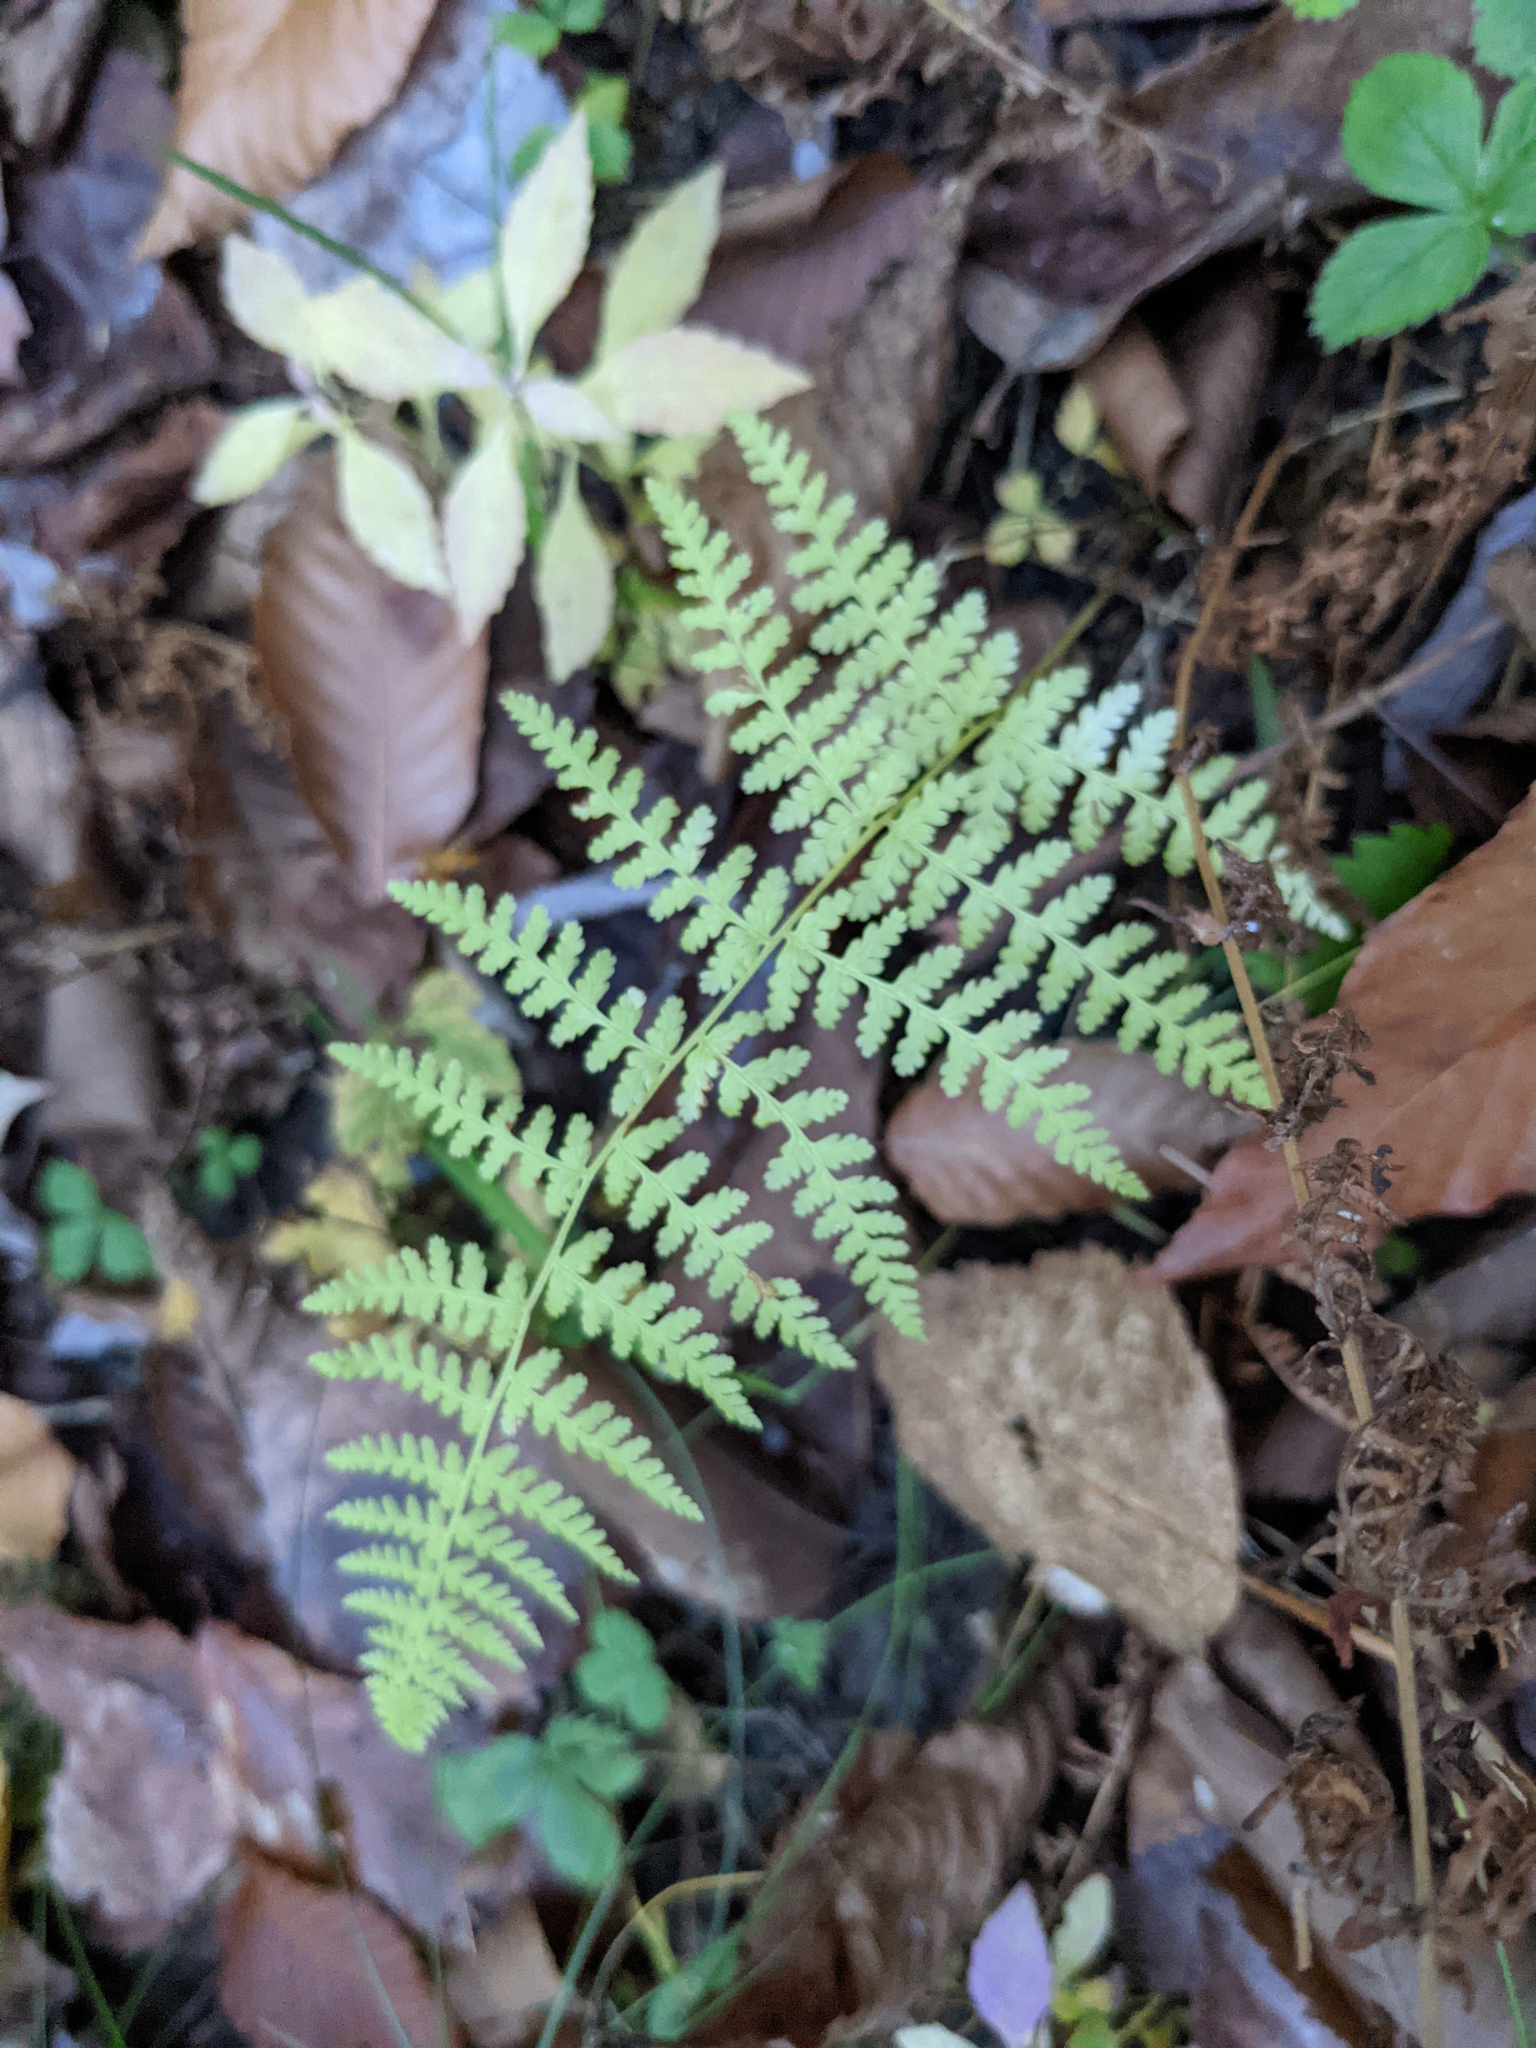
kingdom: Plantae
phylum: Tracheophyta
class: Polypodiopsida
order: Polypodiales
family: Dennstaedtiaceae
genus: Sitobolium
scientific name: Sitobolium punctilobum
